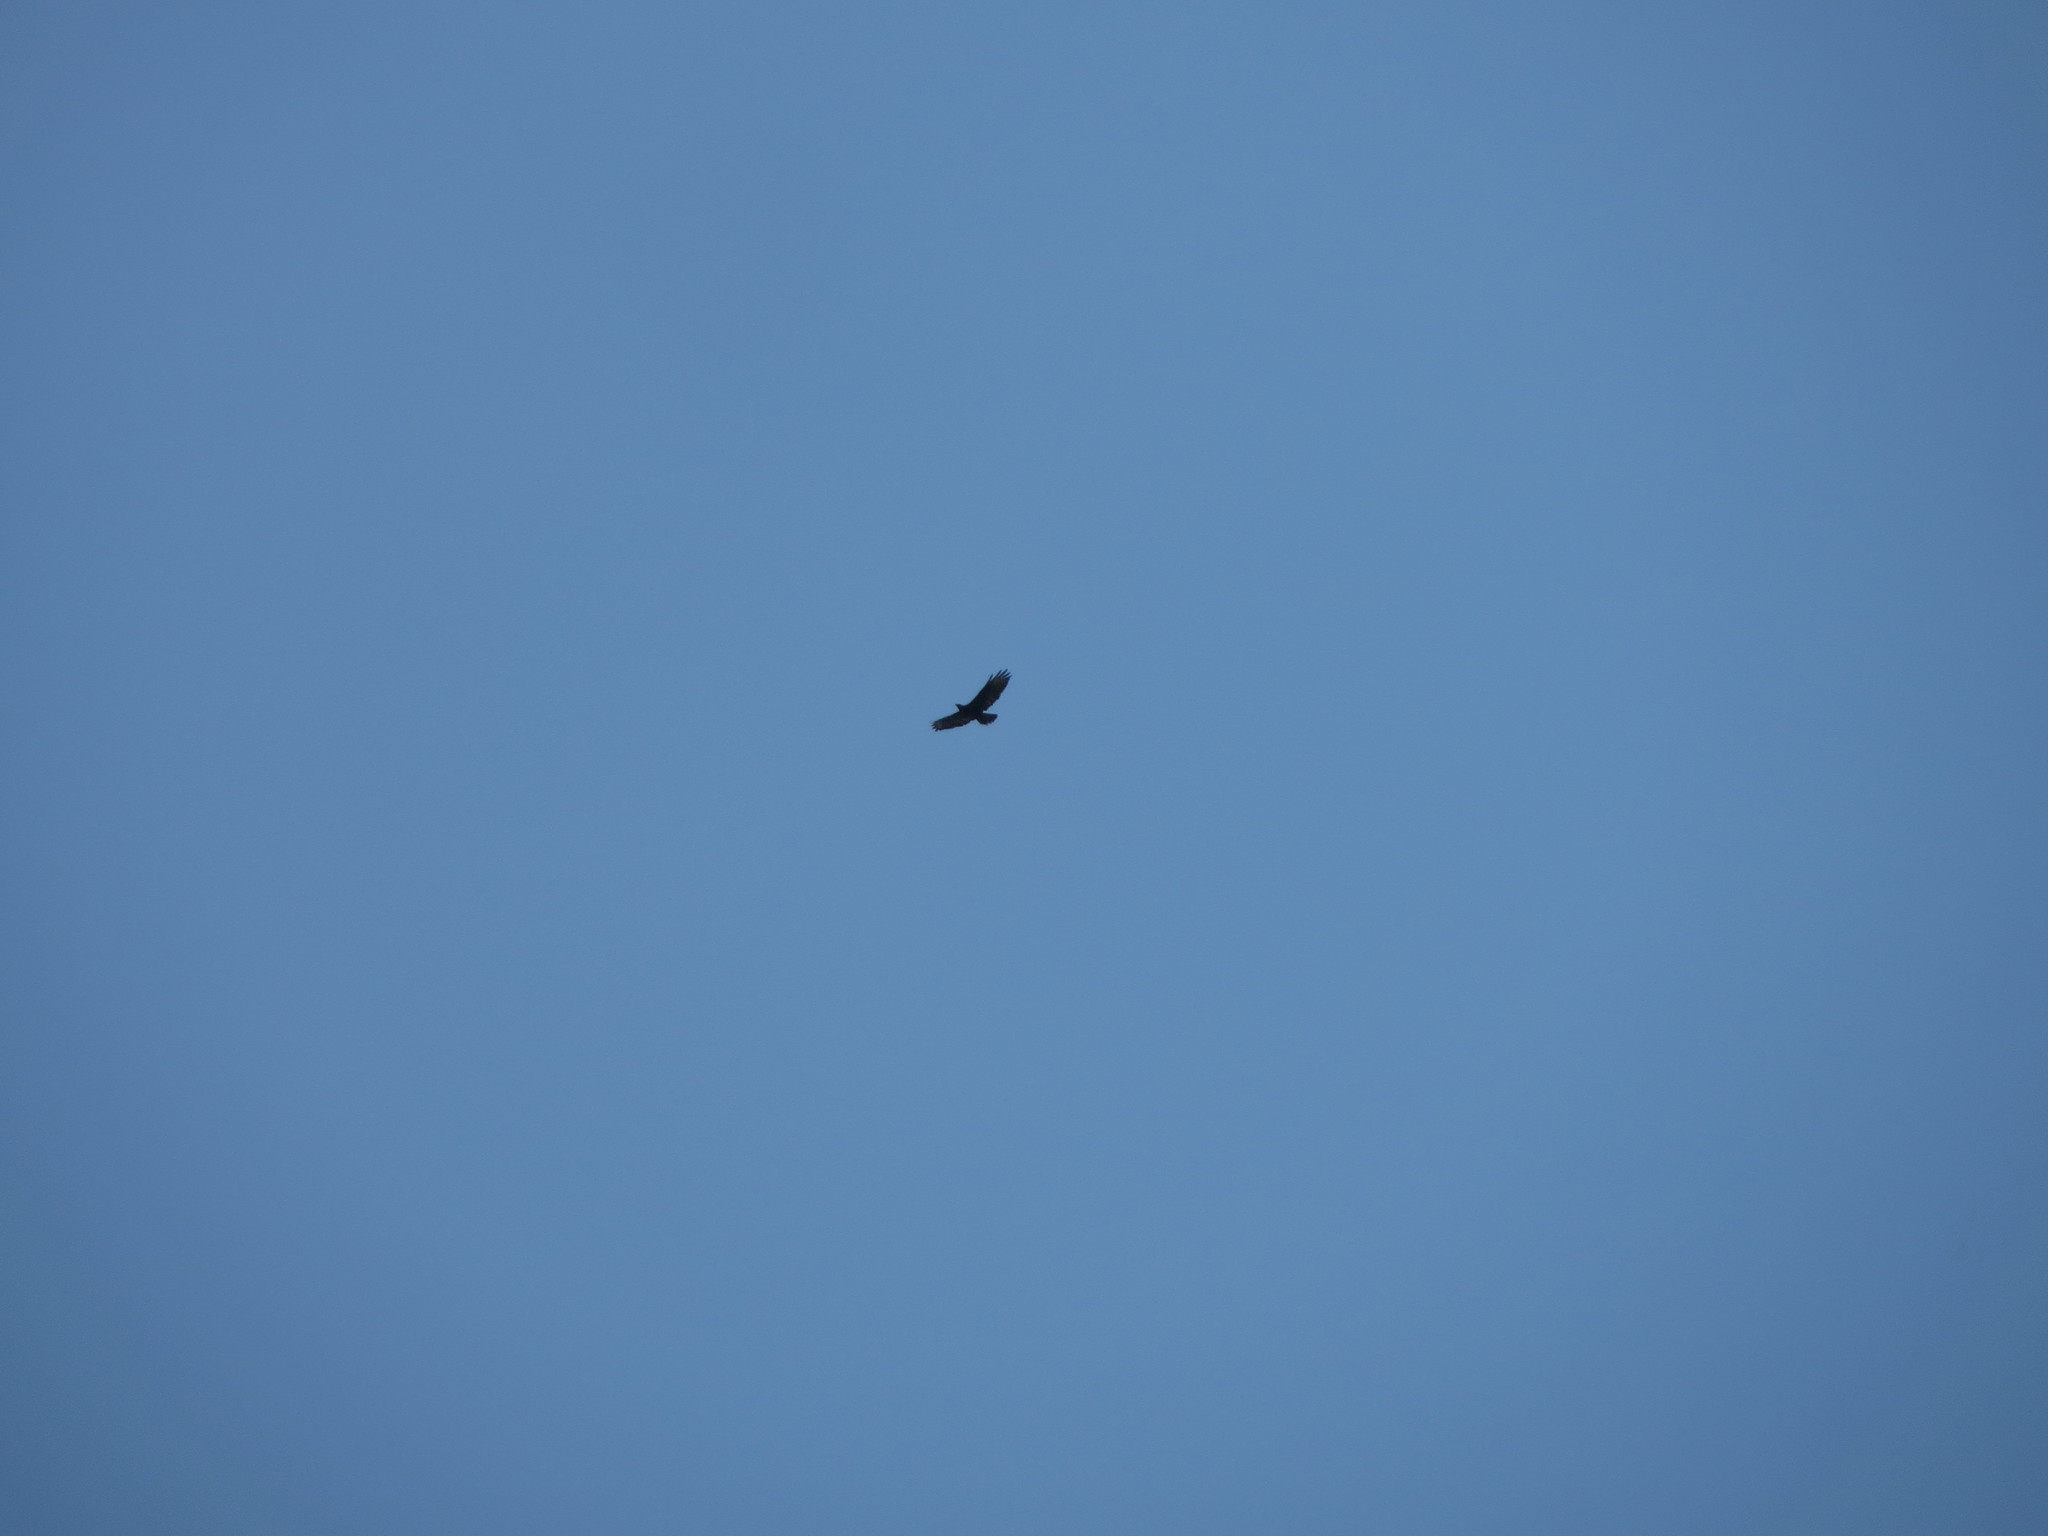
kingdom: Animalia
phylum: Chordata
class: Aves
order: Accipitriformes
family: Accipitridae
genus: Buteo
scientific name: Buteo buteo
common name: Common buzzard
